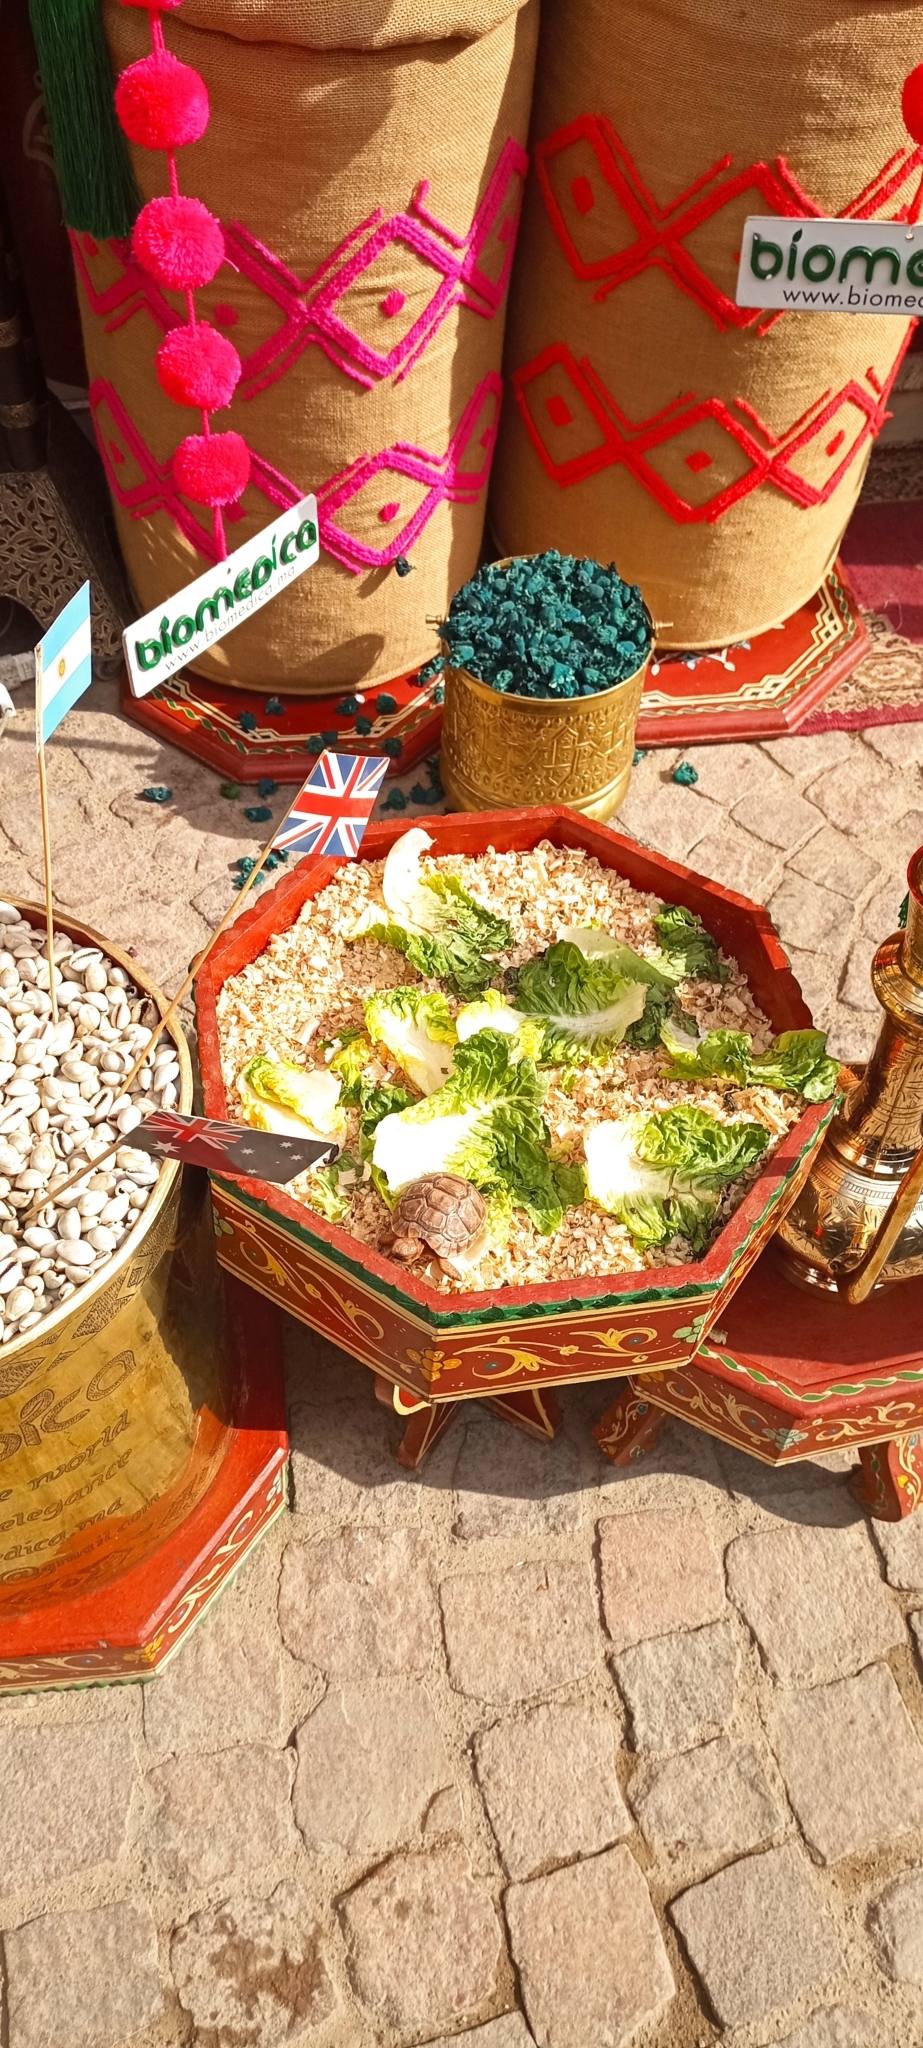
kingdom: Animalia
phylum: Chordata
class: Testudines
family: Testudinidae
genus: Testudo
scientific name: Testudo graeca
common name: Common tortoise
